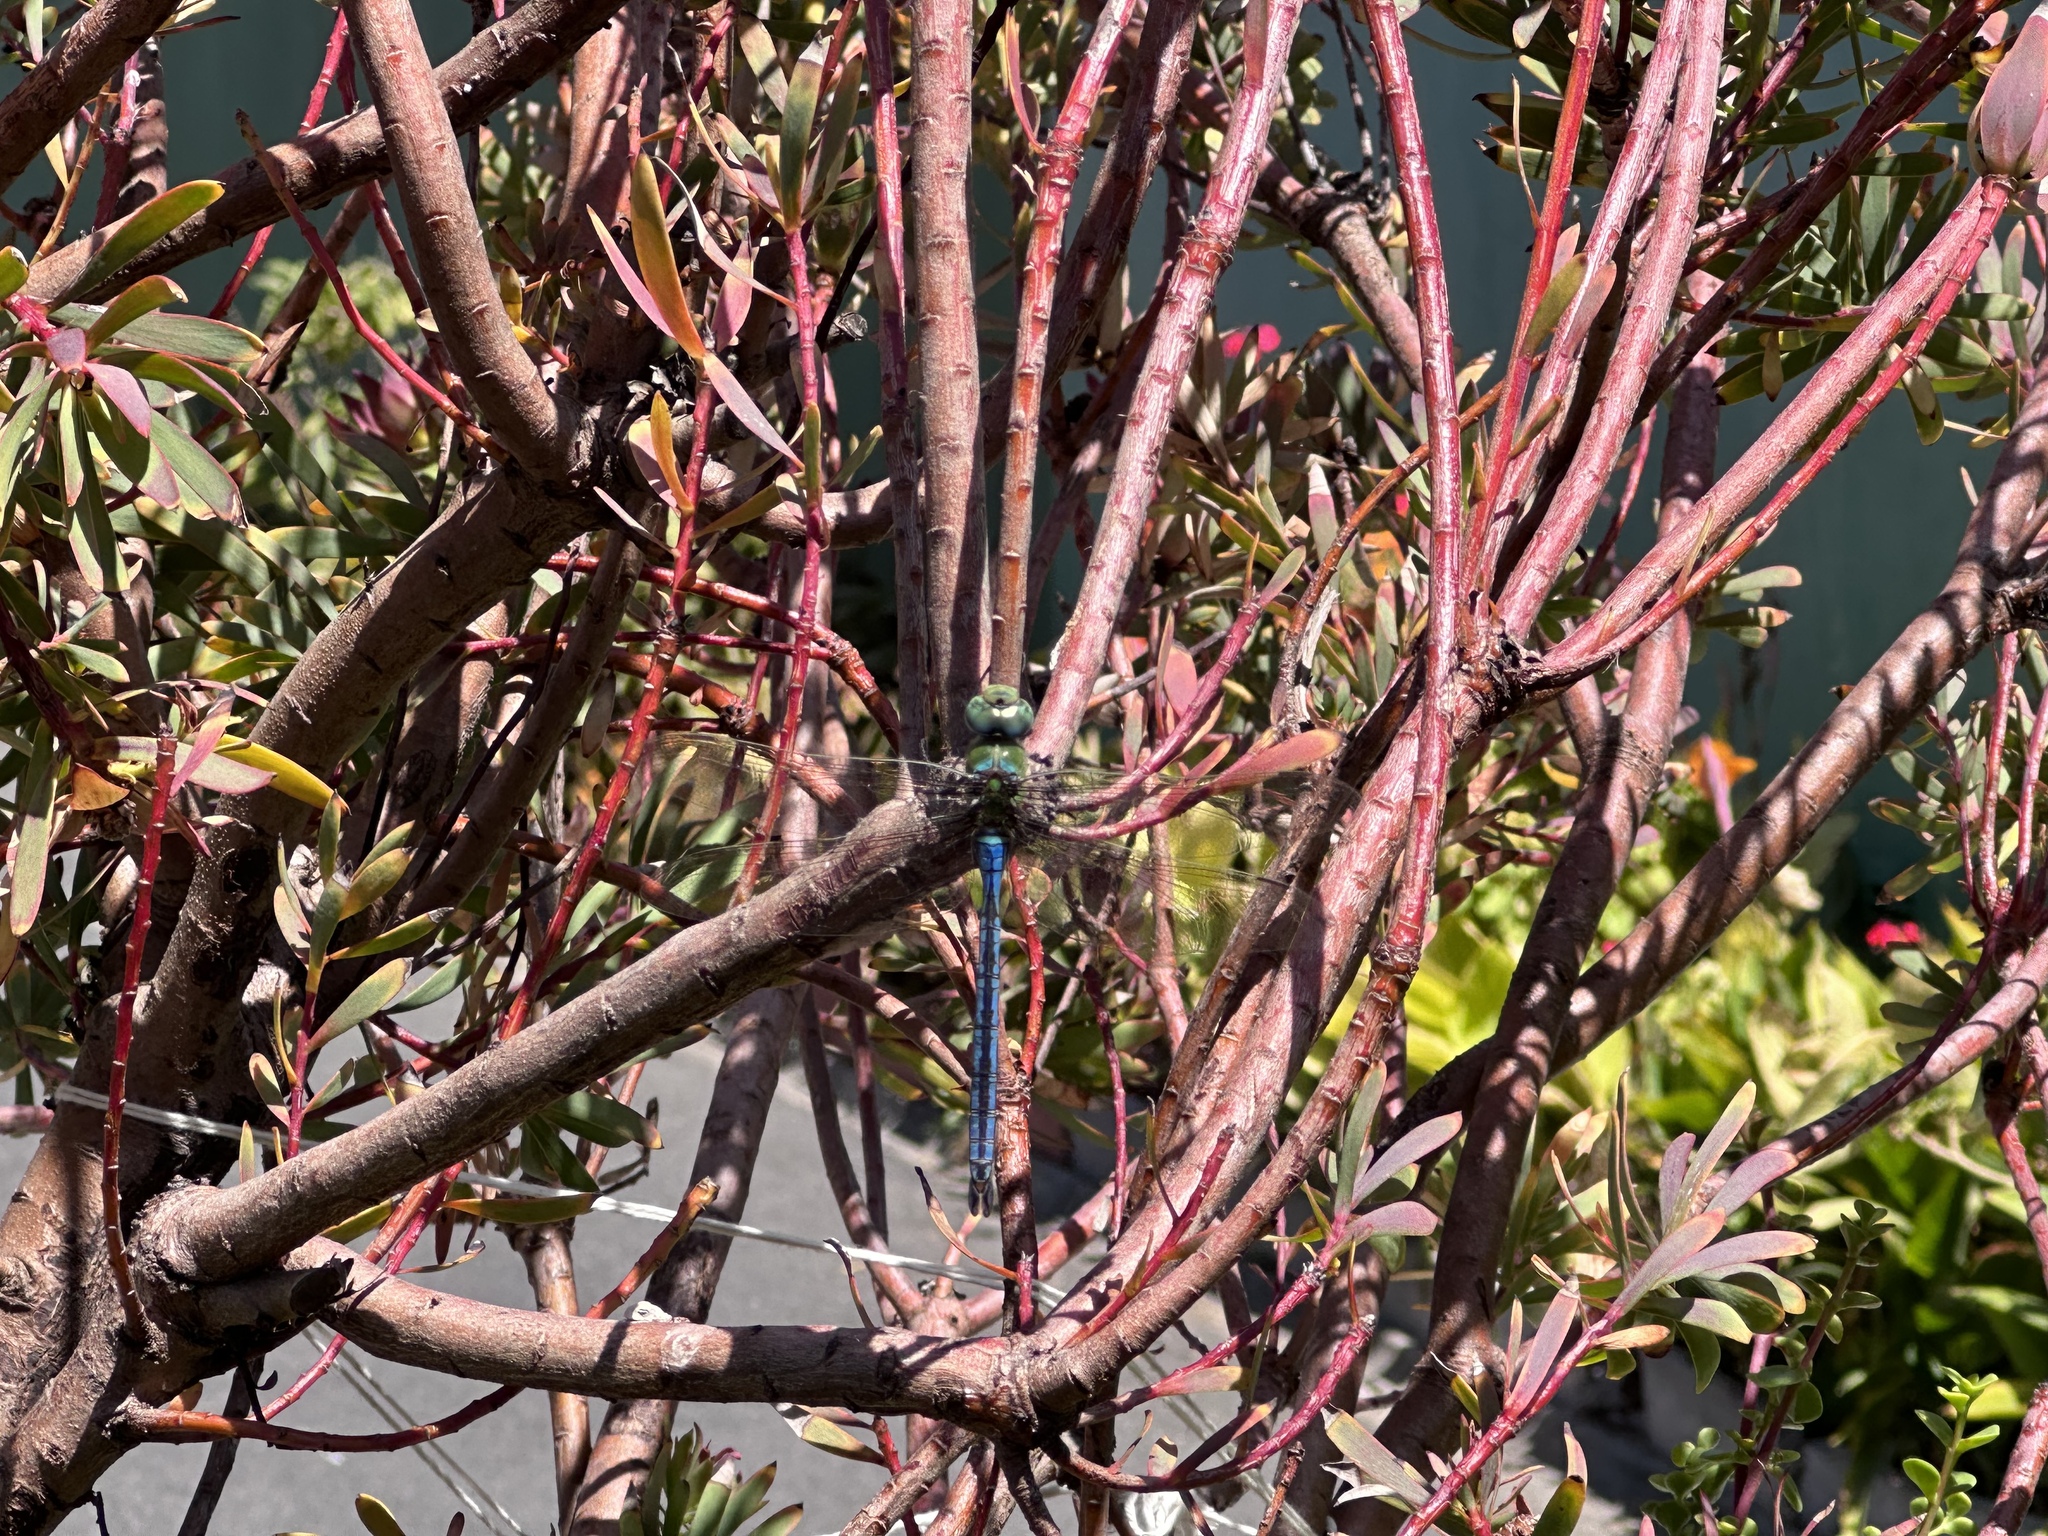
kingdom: Animalia
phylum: Arthropoda
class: Insecta
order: Odonata
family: Aeshnidae
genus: Anax
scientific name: Anax imperator
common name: Emperor dragonfly
